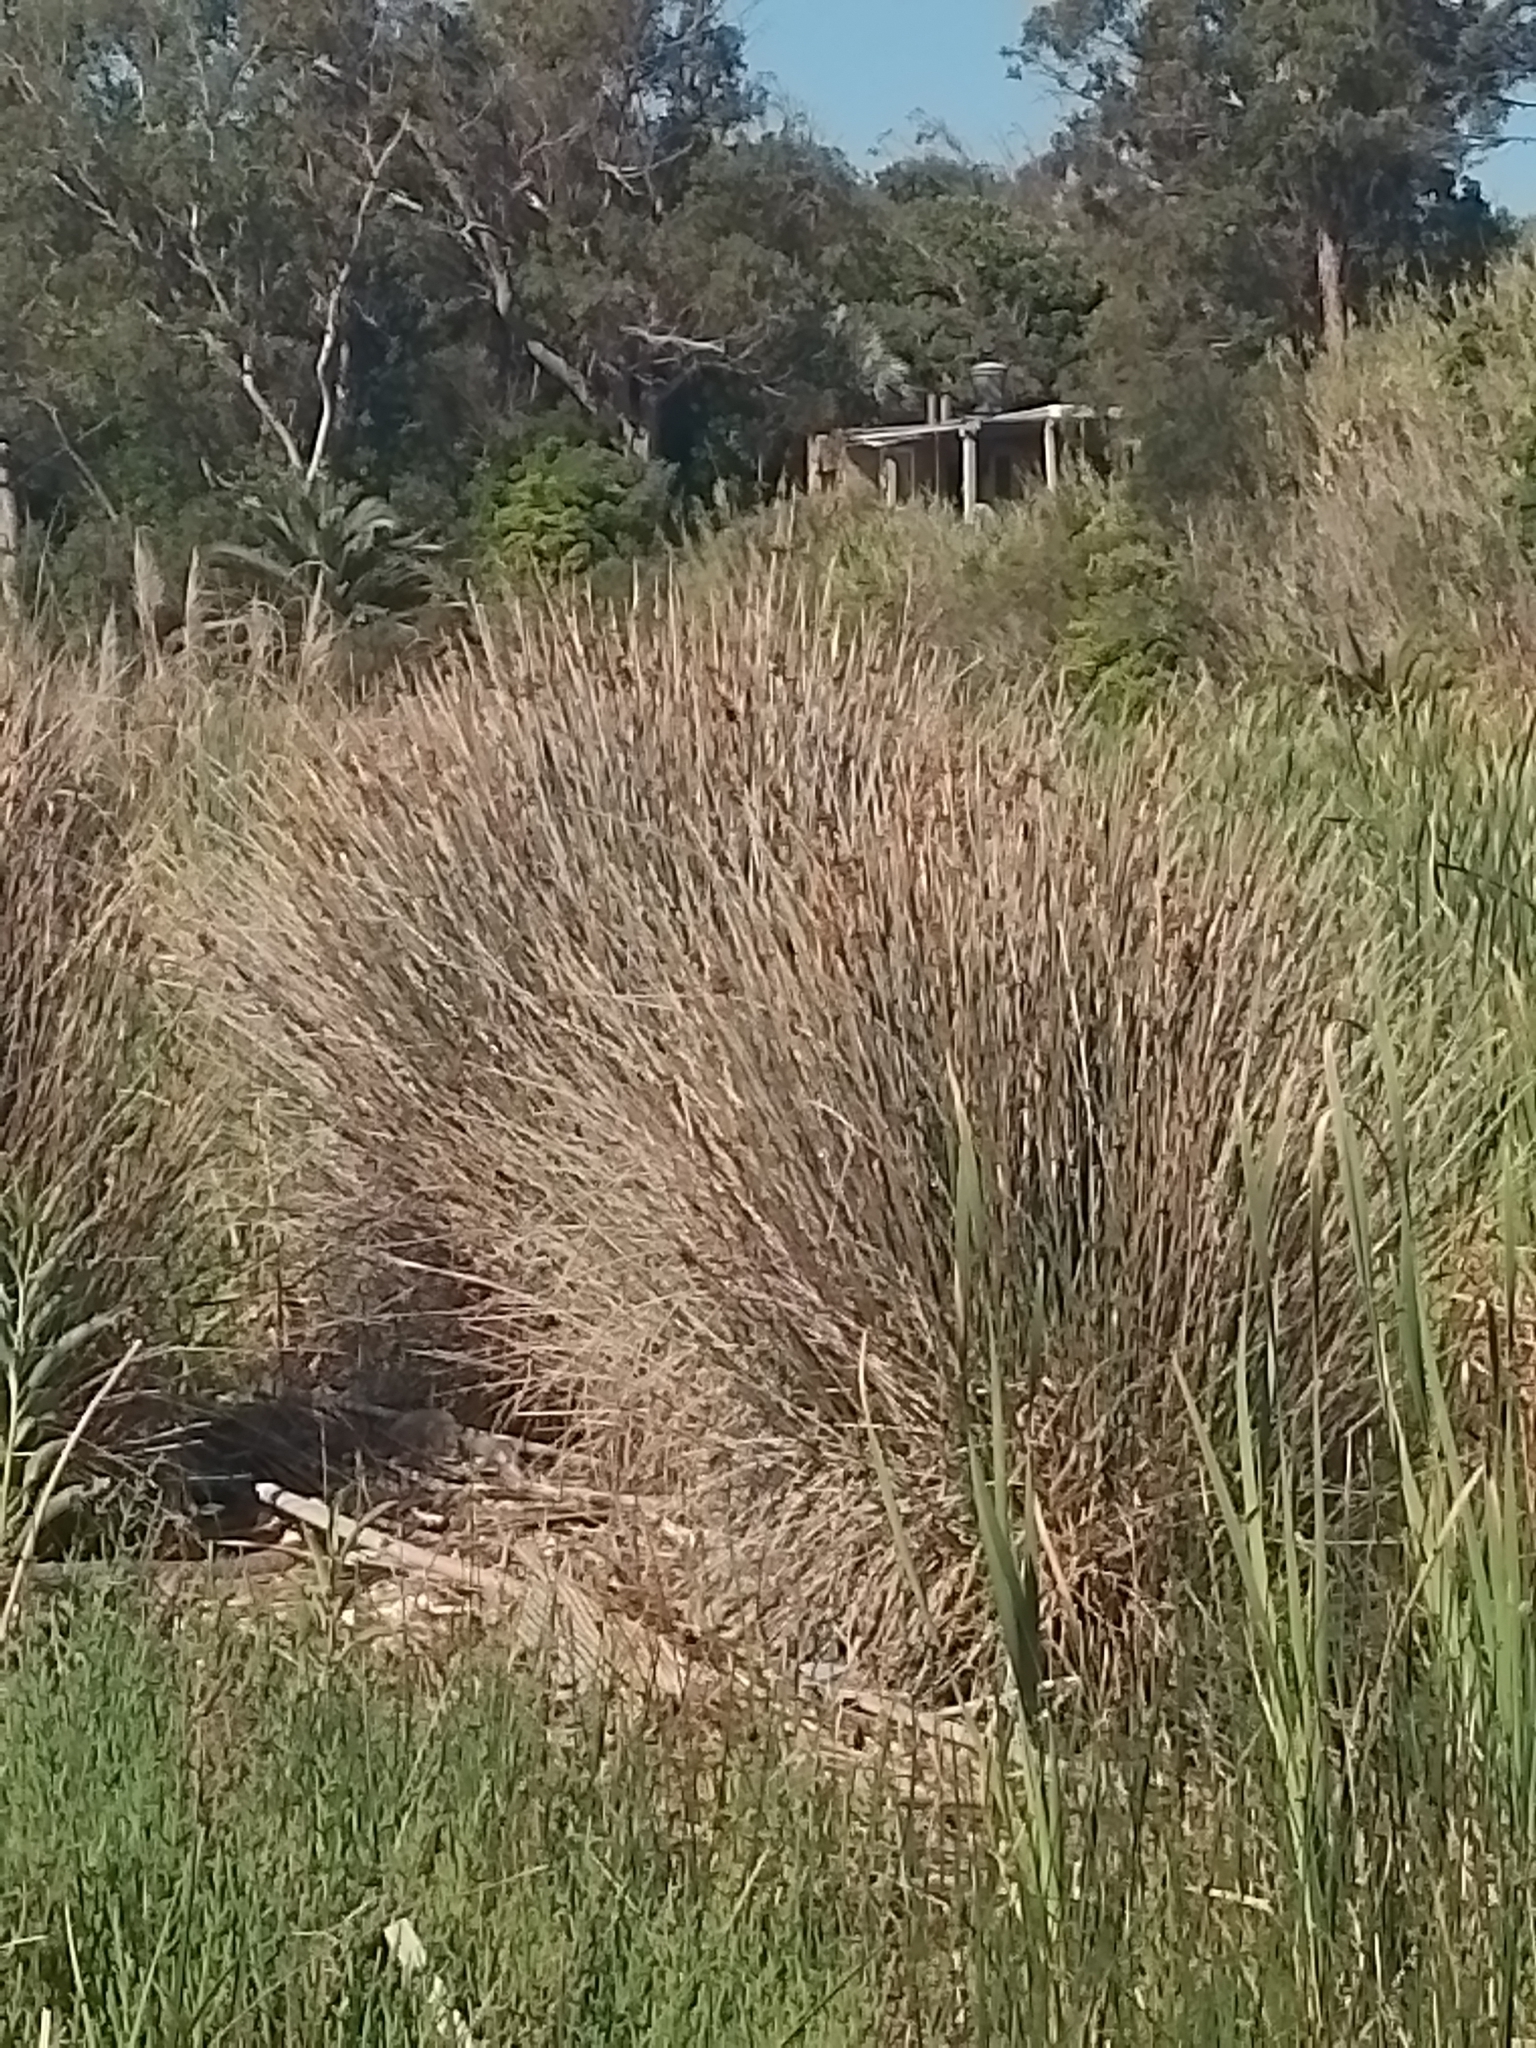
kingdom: Plantae
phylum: Tracheophyta
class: Liliopsida
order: Poales
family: Juncaceae
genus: Juncus
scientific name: Juncus acutus
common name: Sharp rush
